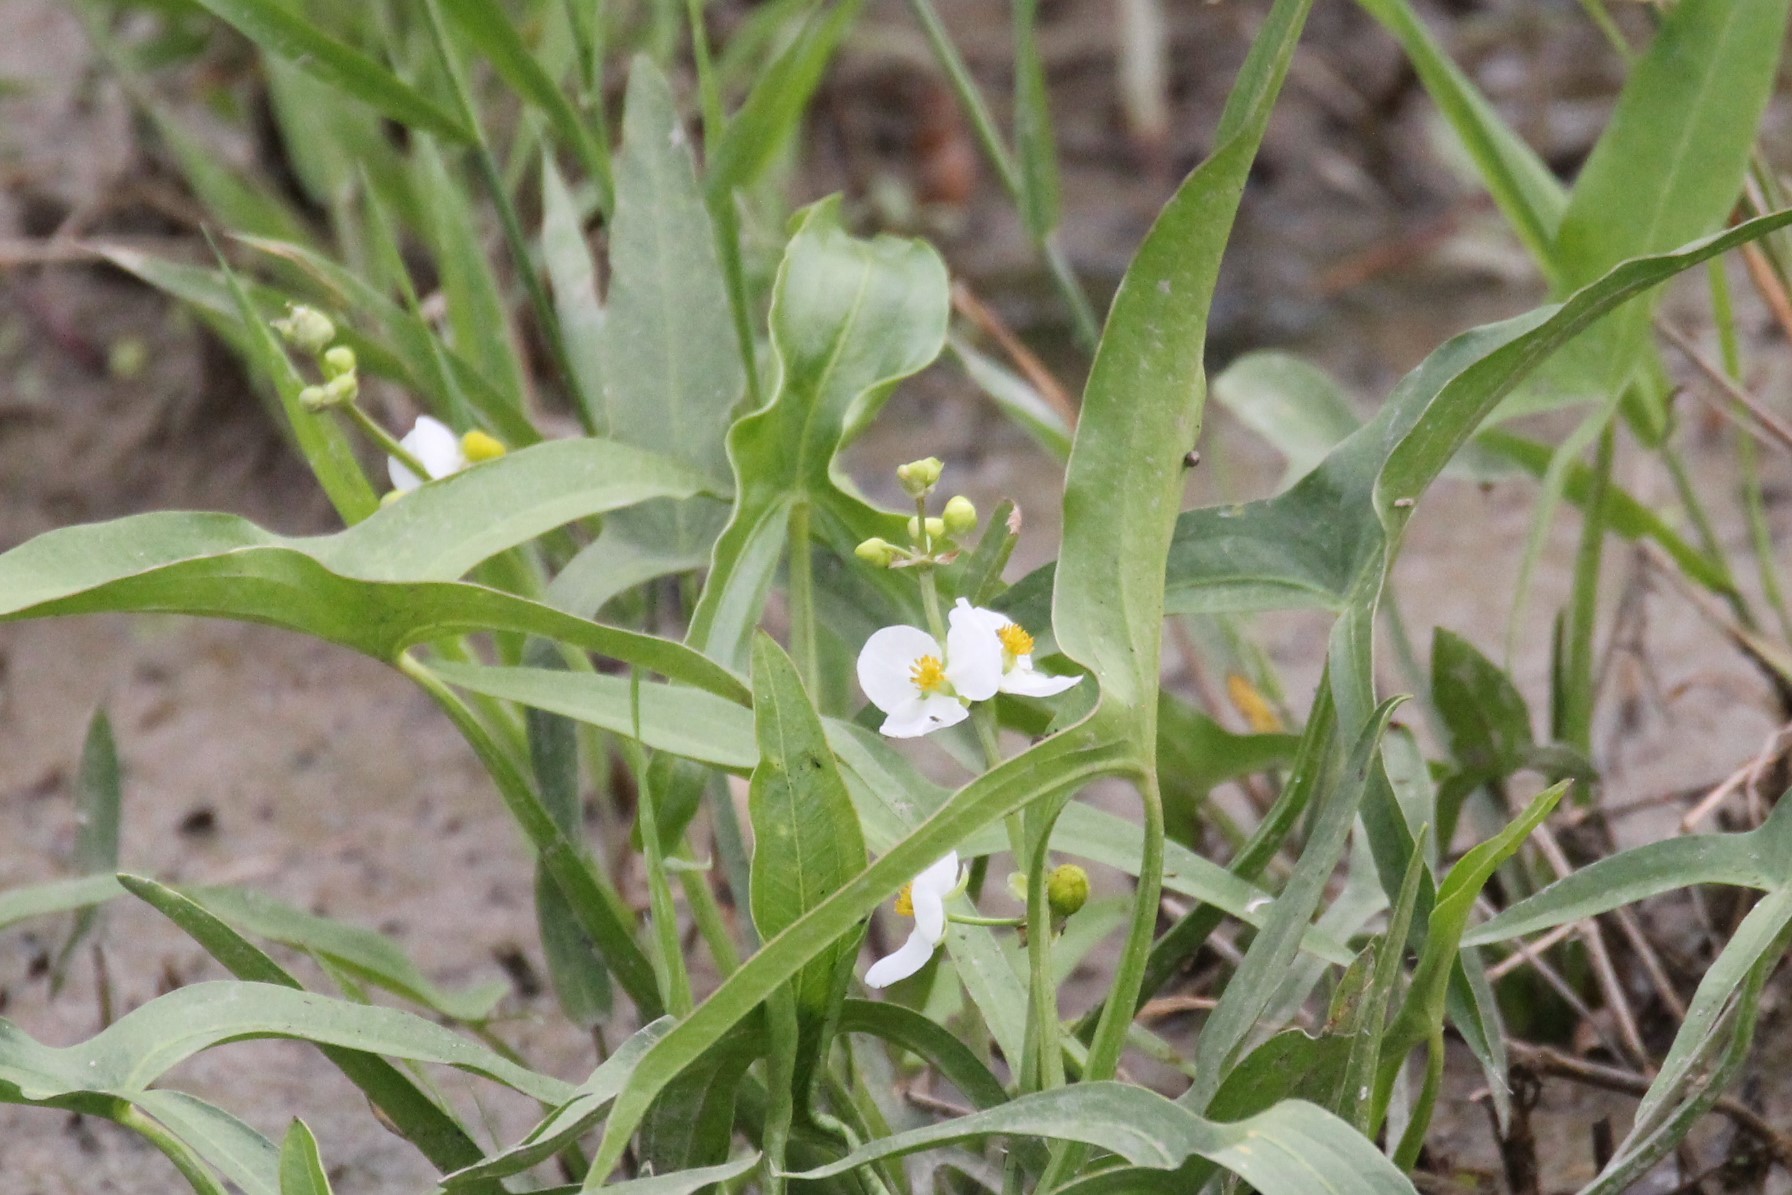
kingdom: Plantae
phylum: Tracheophyta
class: Liliopsida
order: Alismatales
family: Alismataceae
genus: Sagittaria
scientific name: Sagittaria latifolia
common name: Duck-potato
